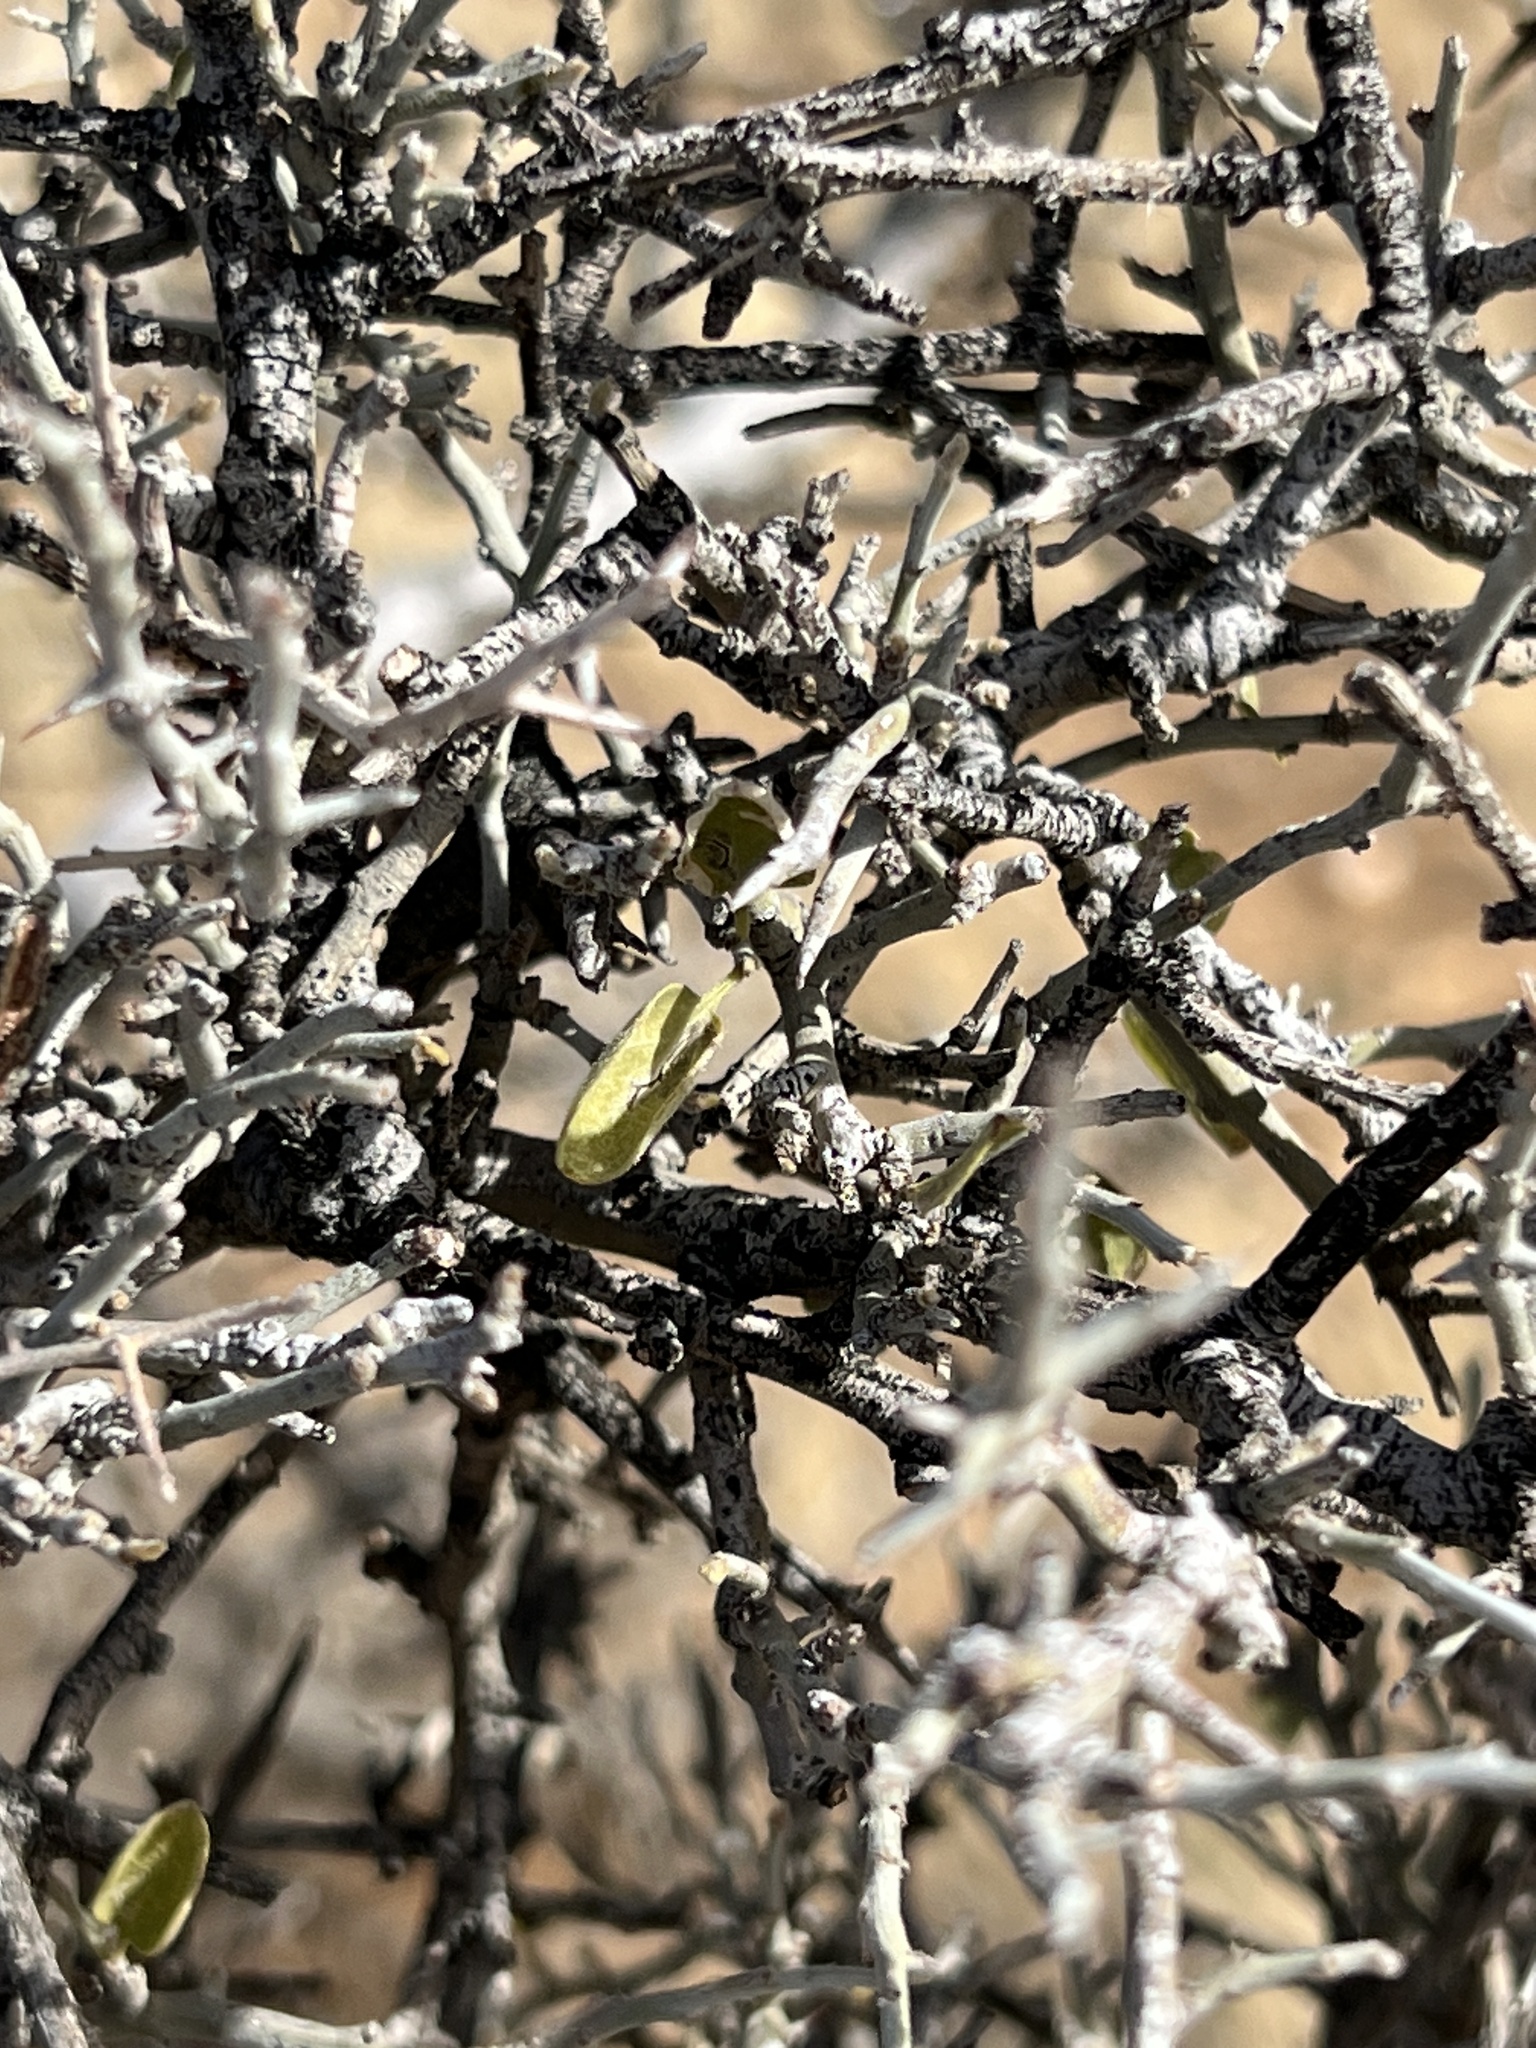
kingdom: Plantae
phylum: Tracheophyta
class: Magnoliopsida
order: Rosales
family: Rosaceae
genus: Prunus
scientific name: Prunus fasciculata
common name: Desert almond
